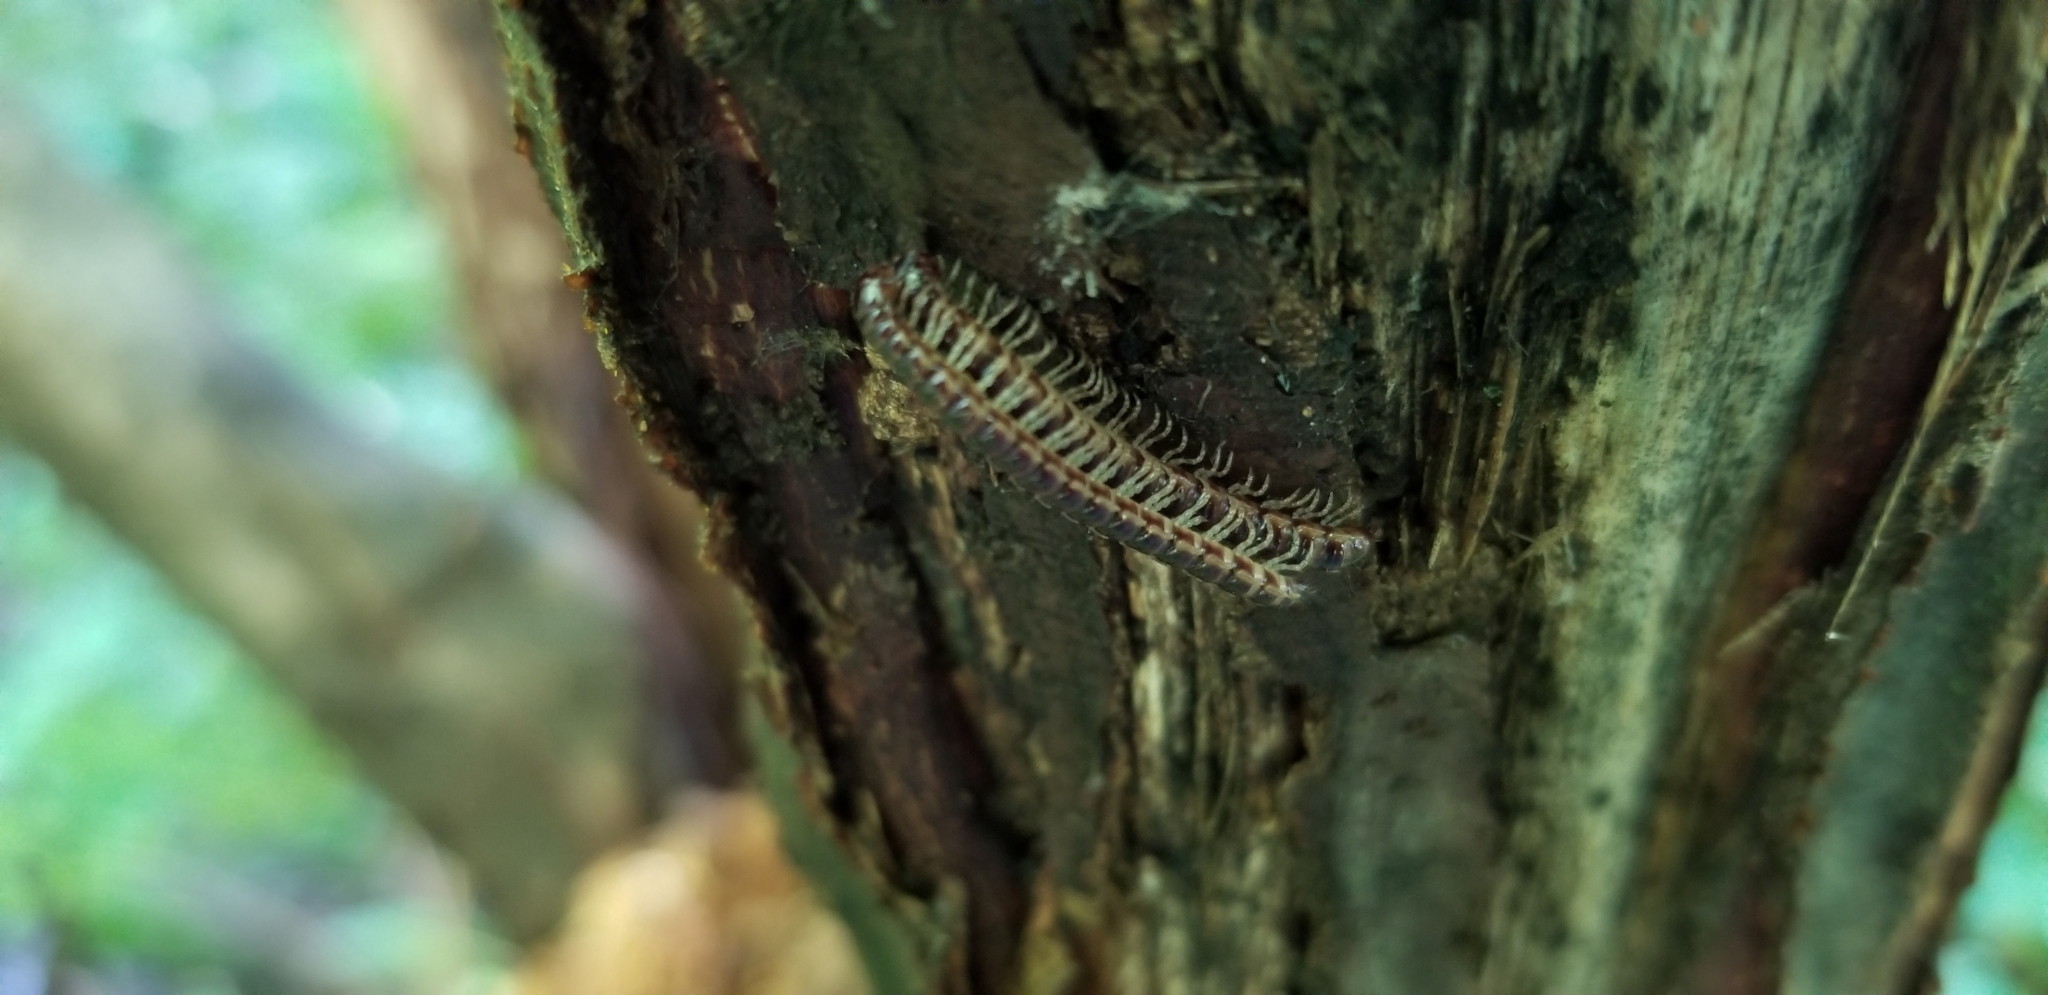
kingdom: Animalia
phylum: Arthropoda
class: Diplopoda
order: Polydesmida
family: Paradoxosomatidae
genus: Oxidus
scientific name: Oxidus gracilis
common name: Greenhouse millipede
